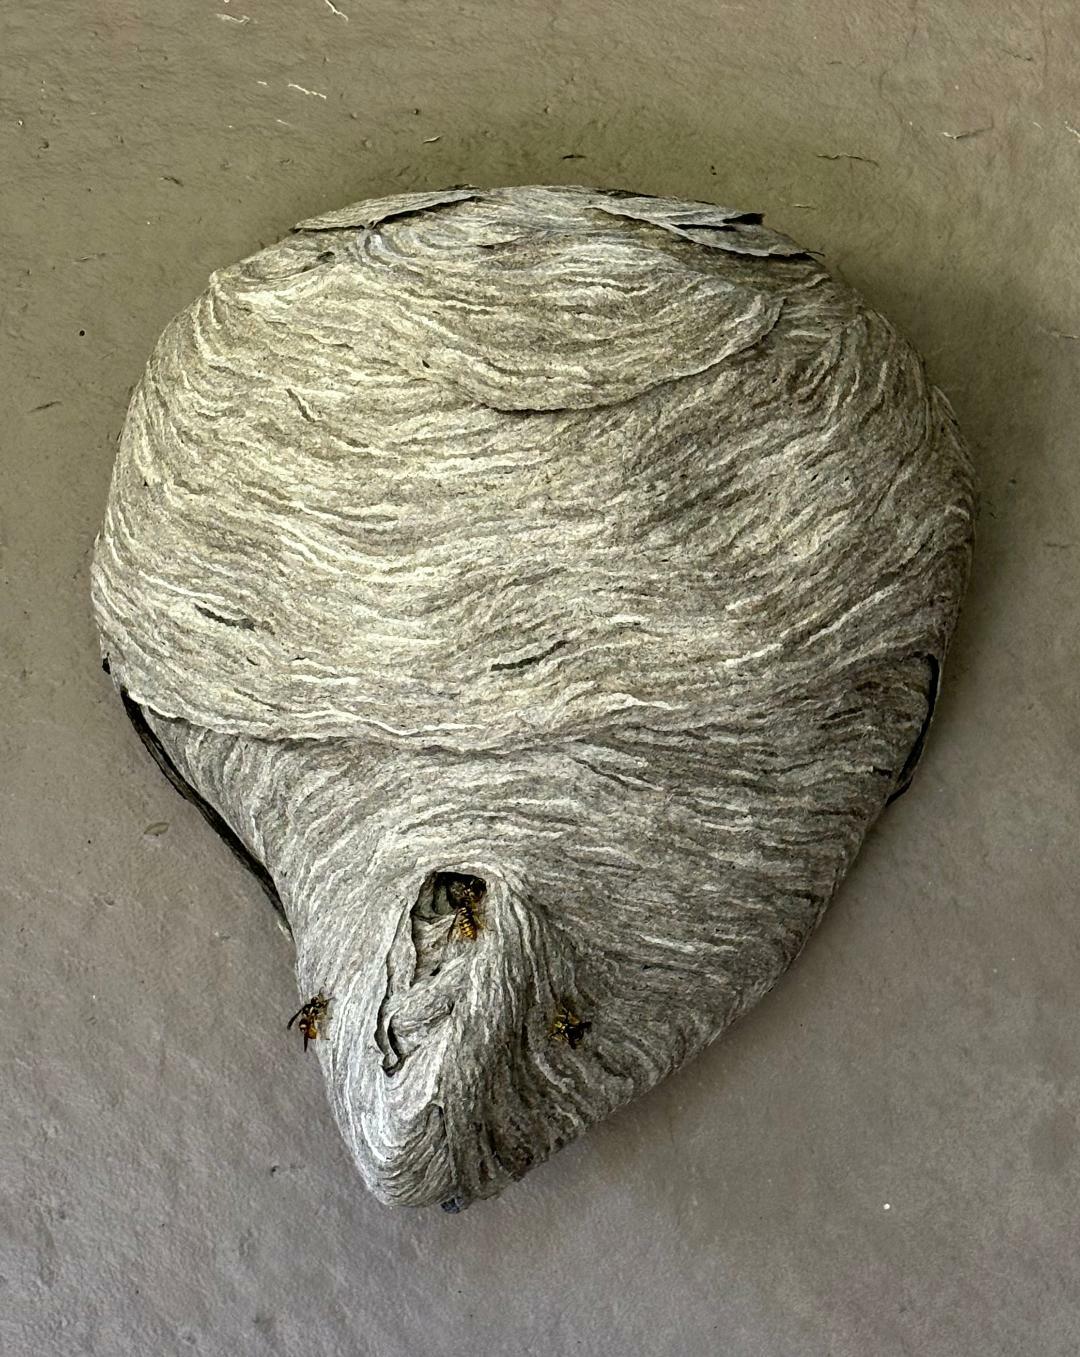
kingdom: Animalia
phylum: Arthropoda
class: Insecta
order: Hymenoptera
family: Vespidae
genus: Dolichovespula
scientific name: Dolichovespula arenaria
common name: Aerial yellowjacket
